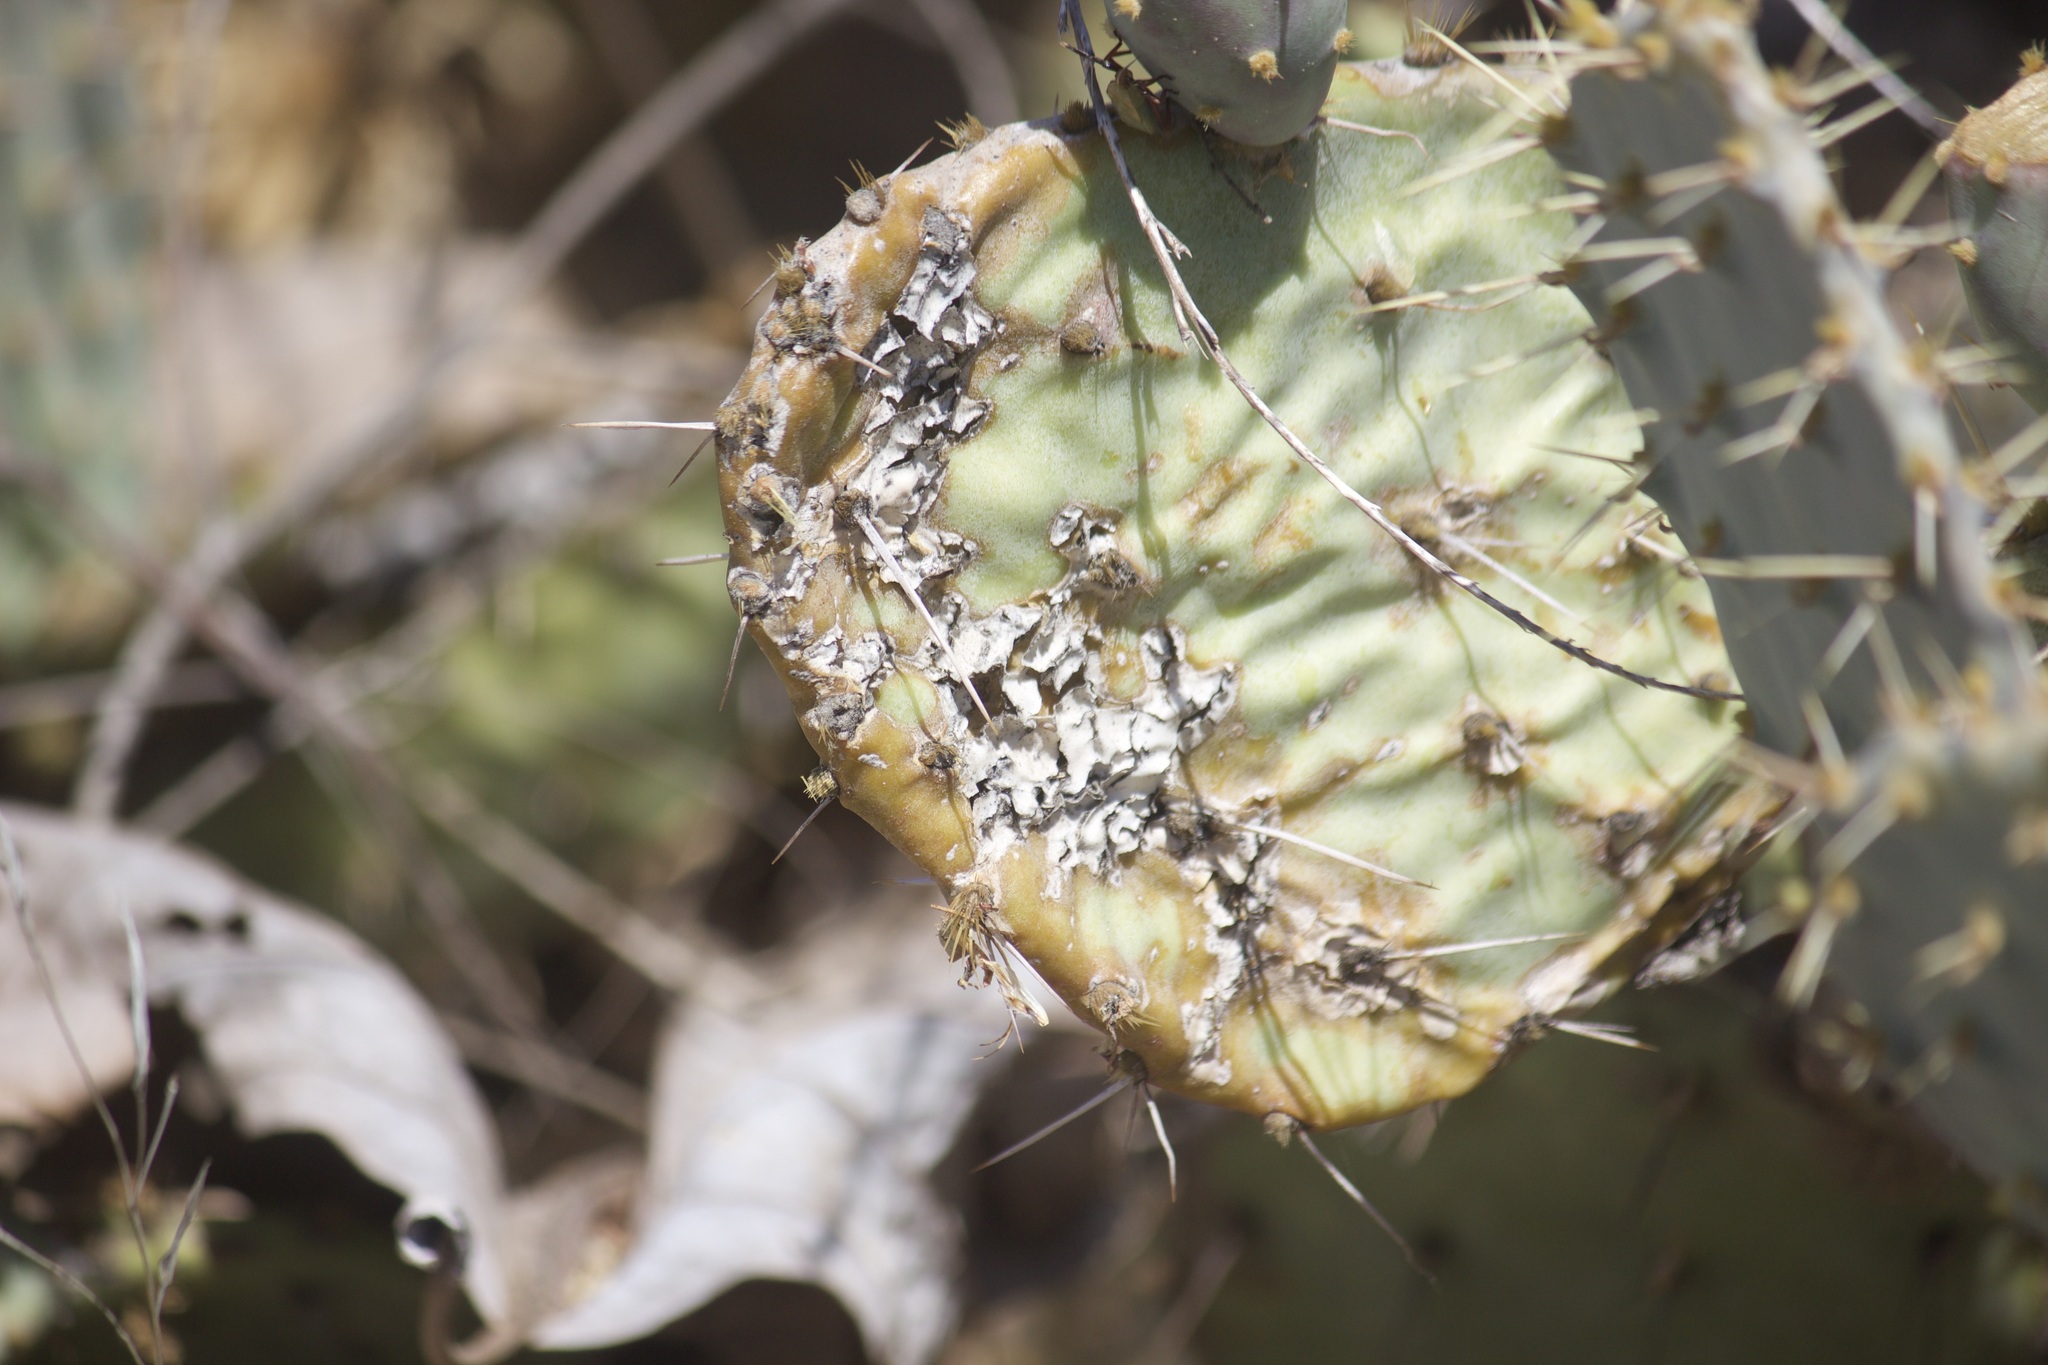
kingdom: Plantae
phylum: Tracheophyta
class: Magnoliopsida
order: Caryophyllales
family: Cactaceae
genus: Opuntia
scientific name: Opuntia littoralis
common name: Coastal prickly-pear
